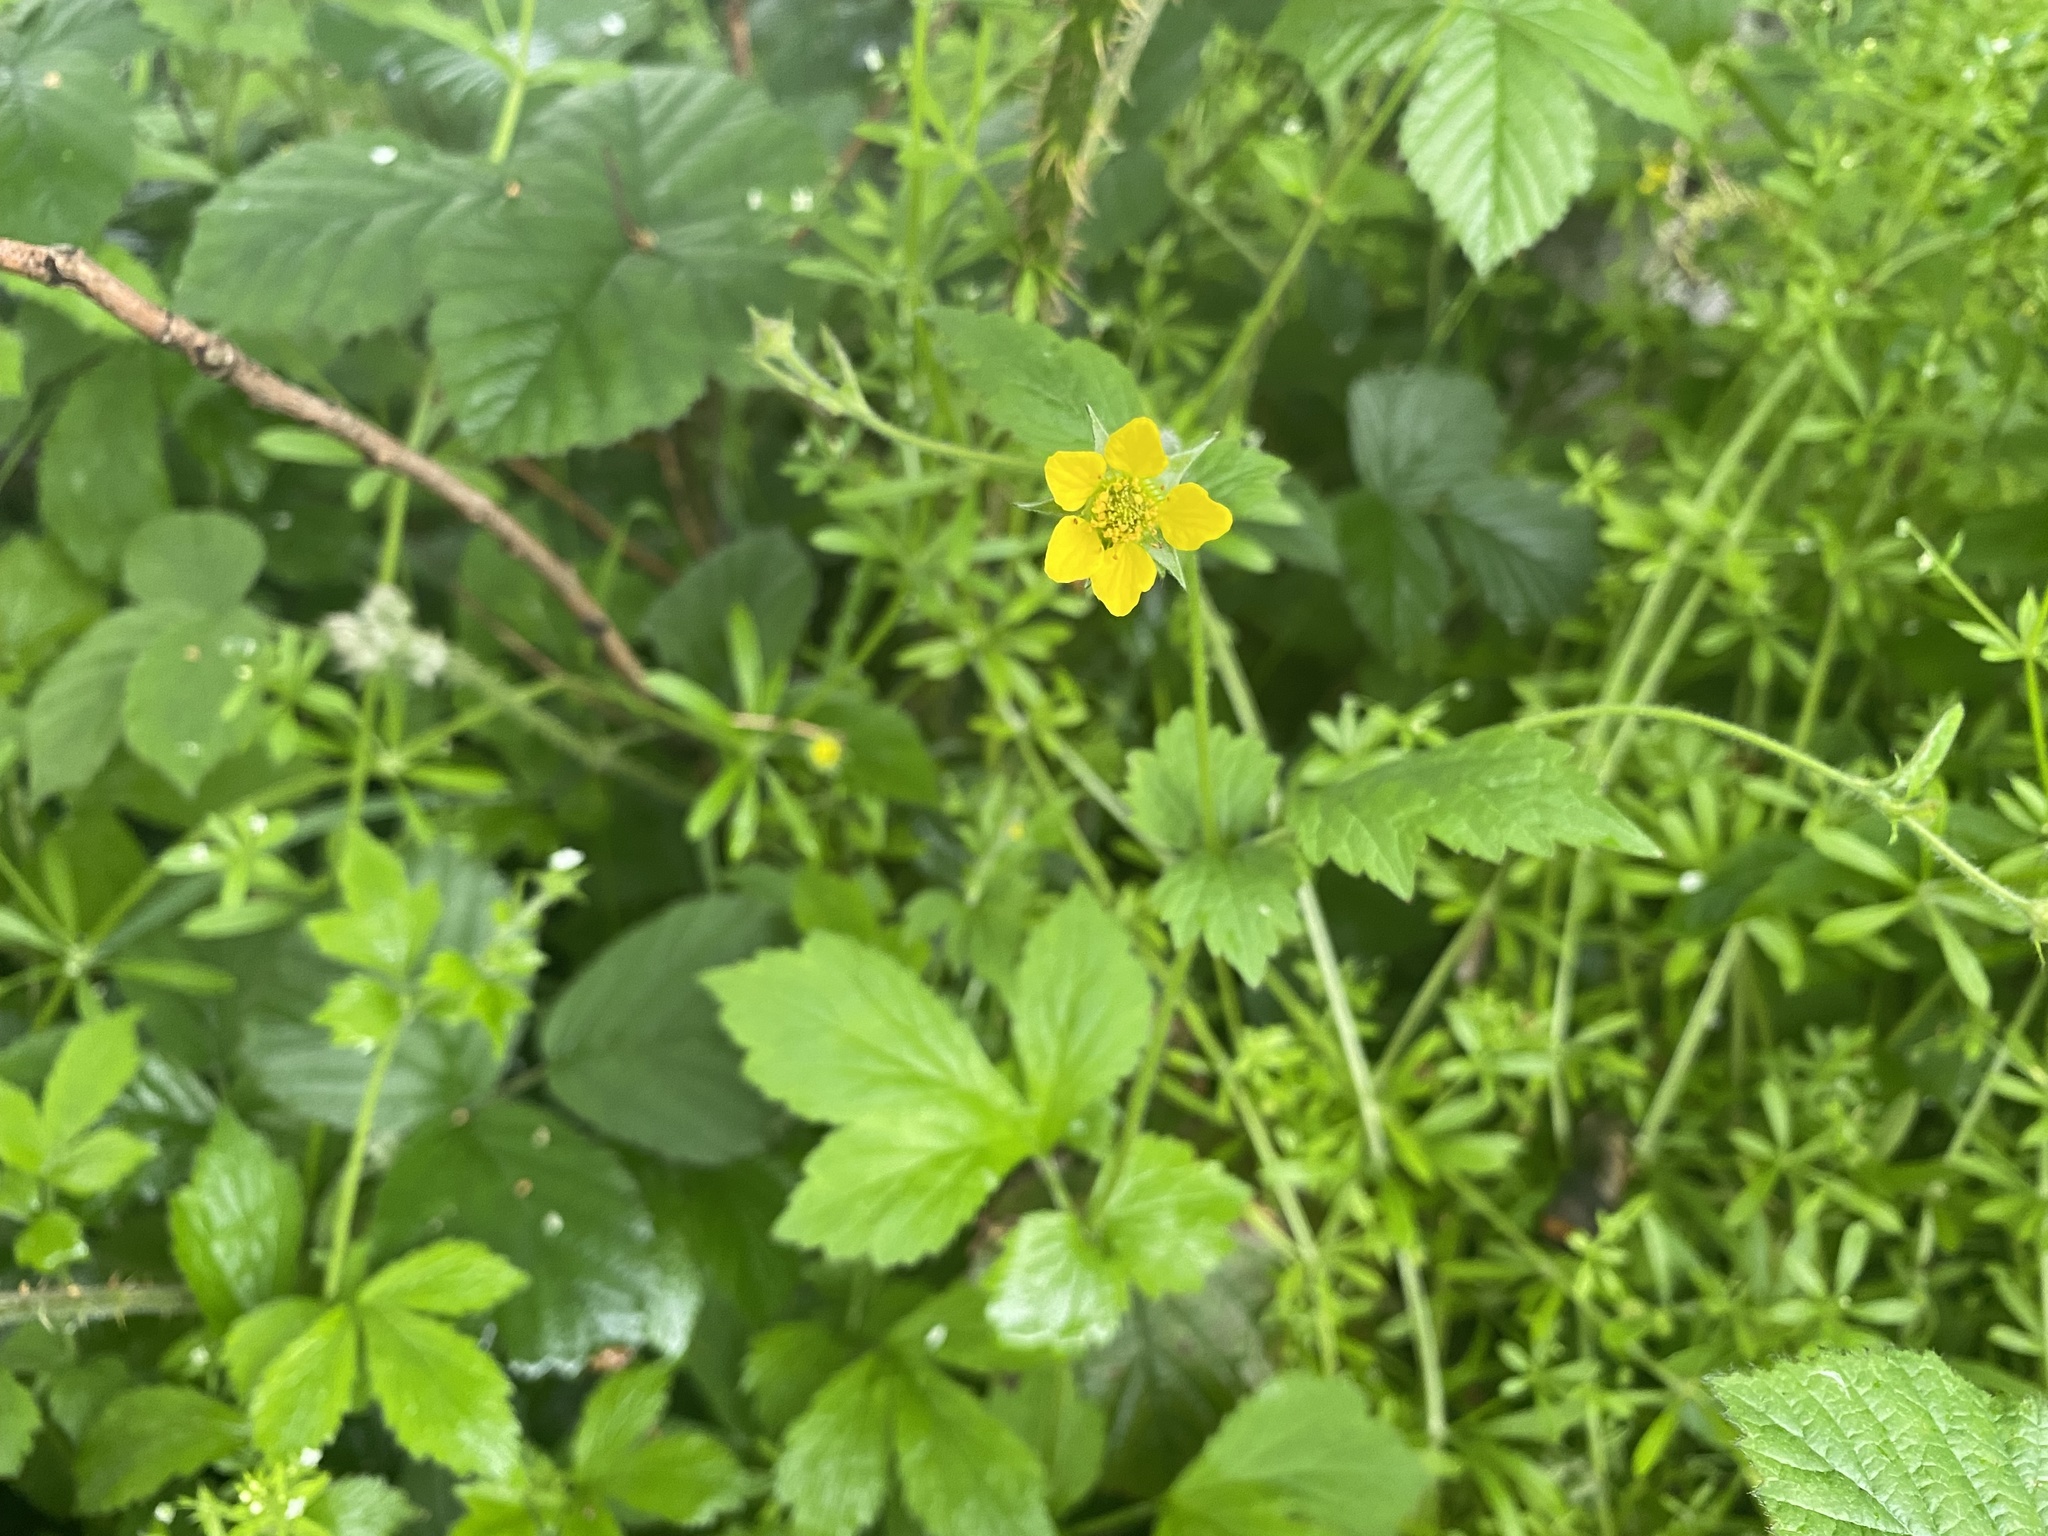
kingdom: Plantae
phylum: Tracheophyta
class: Magnoliopsida
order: Rosales
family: Rosaceae
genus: Geum
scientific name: Geum urbanum
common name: Wood avens
